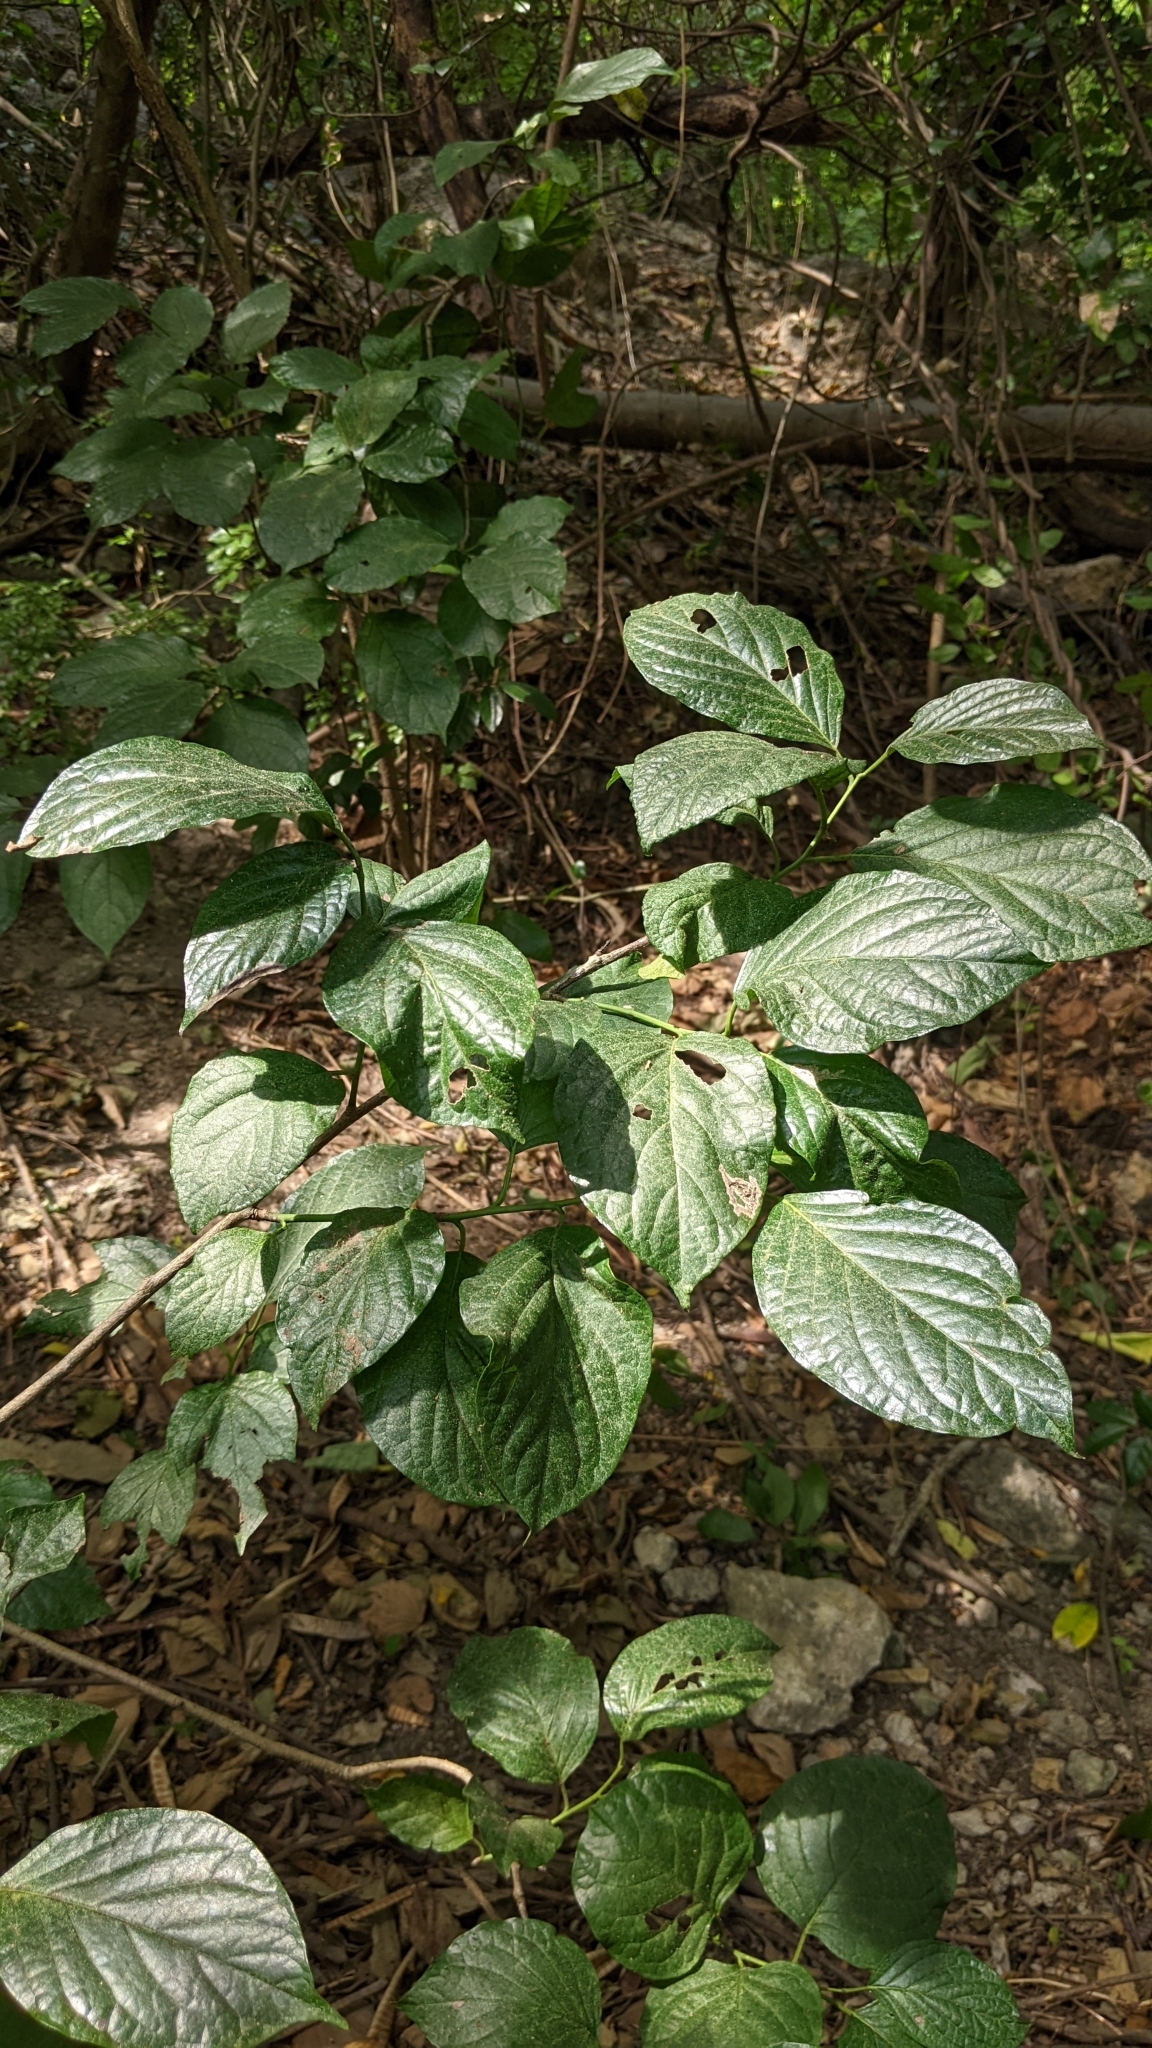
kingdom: Plantae
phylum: Tracheophyta
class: Magnoliopsida
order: Boraginales
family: Ehretiaceae
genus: Ehretia
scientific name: Ehretia resinosa
